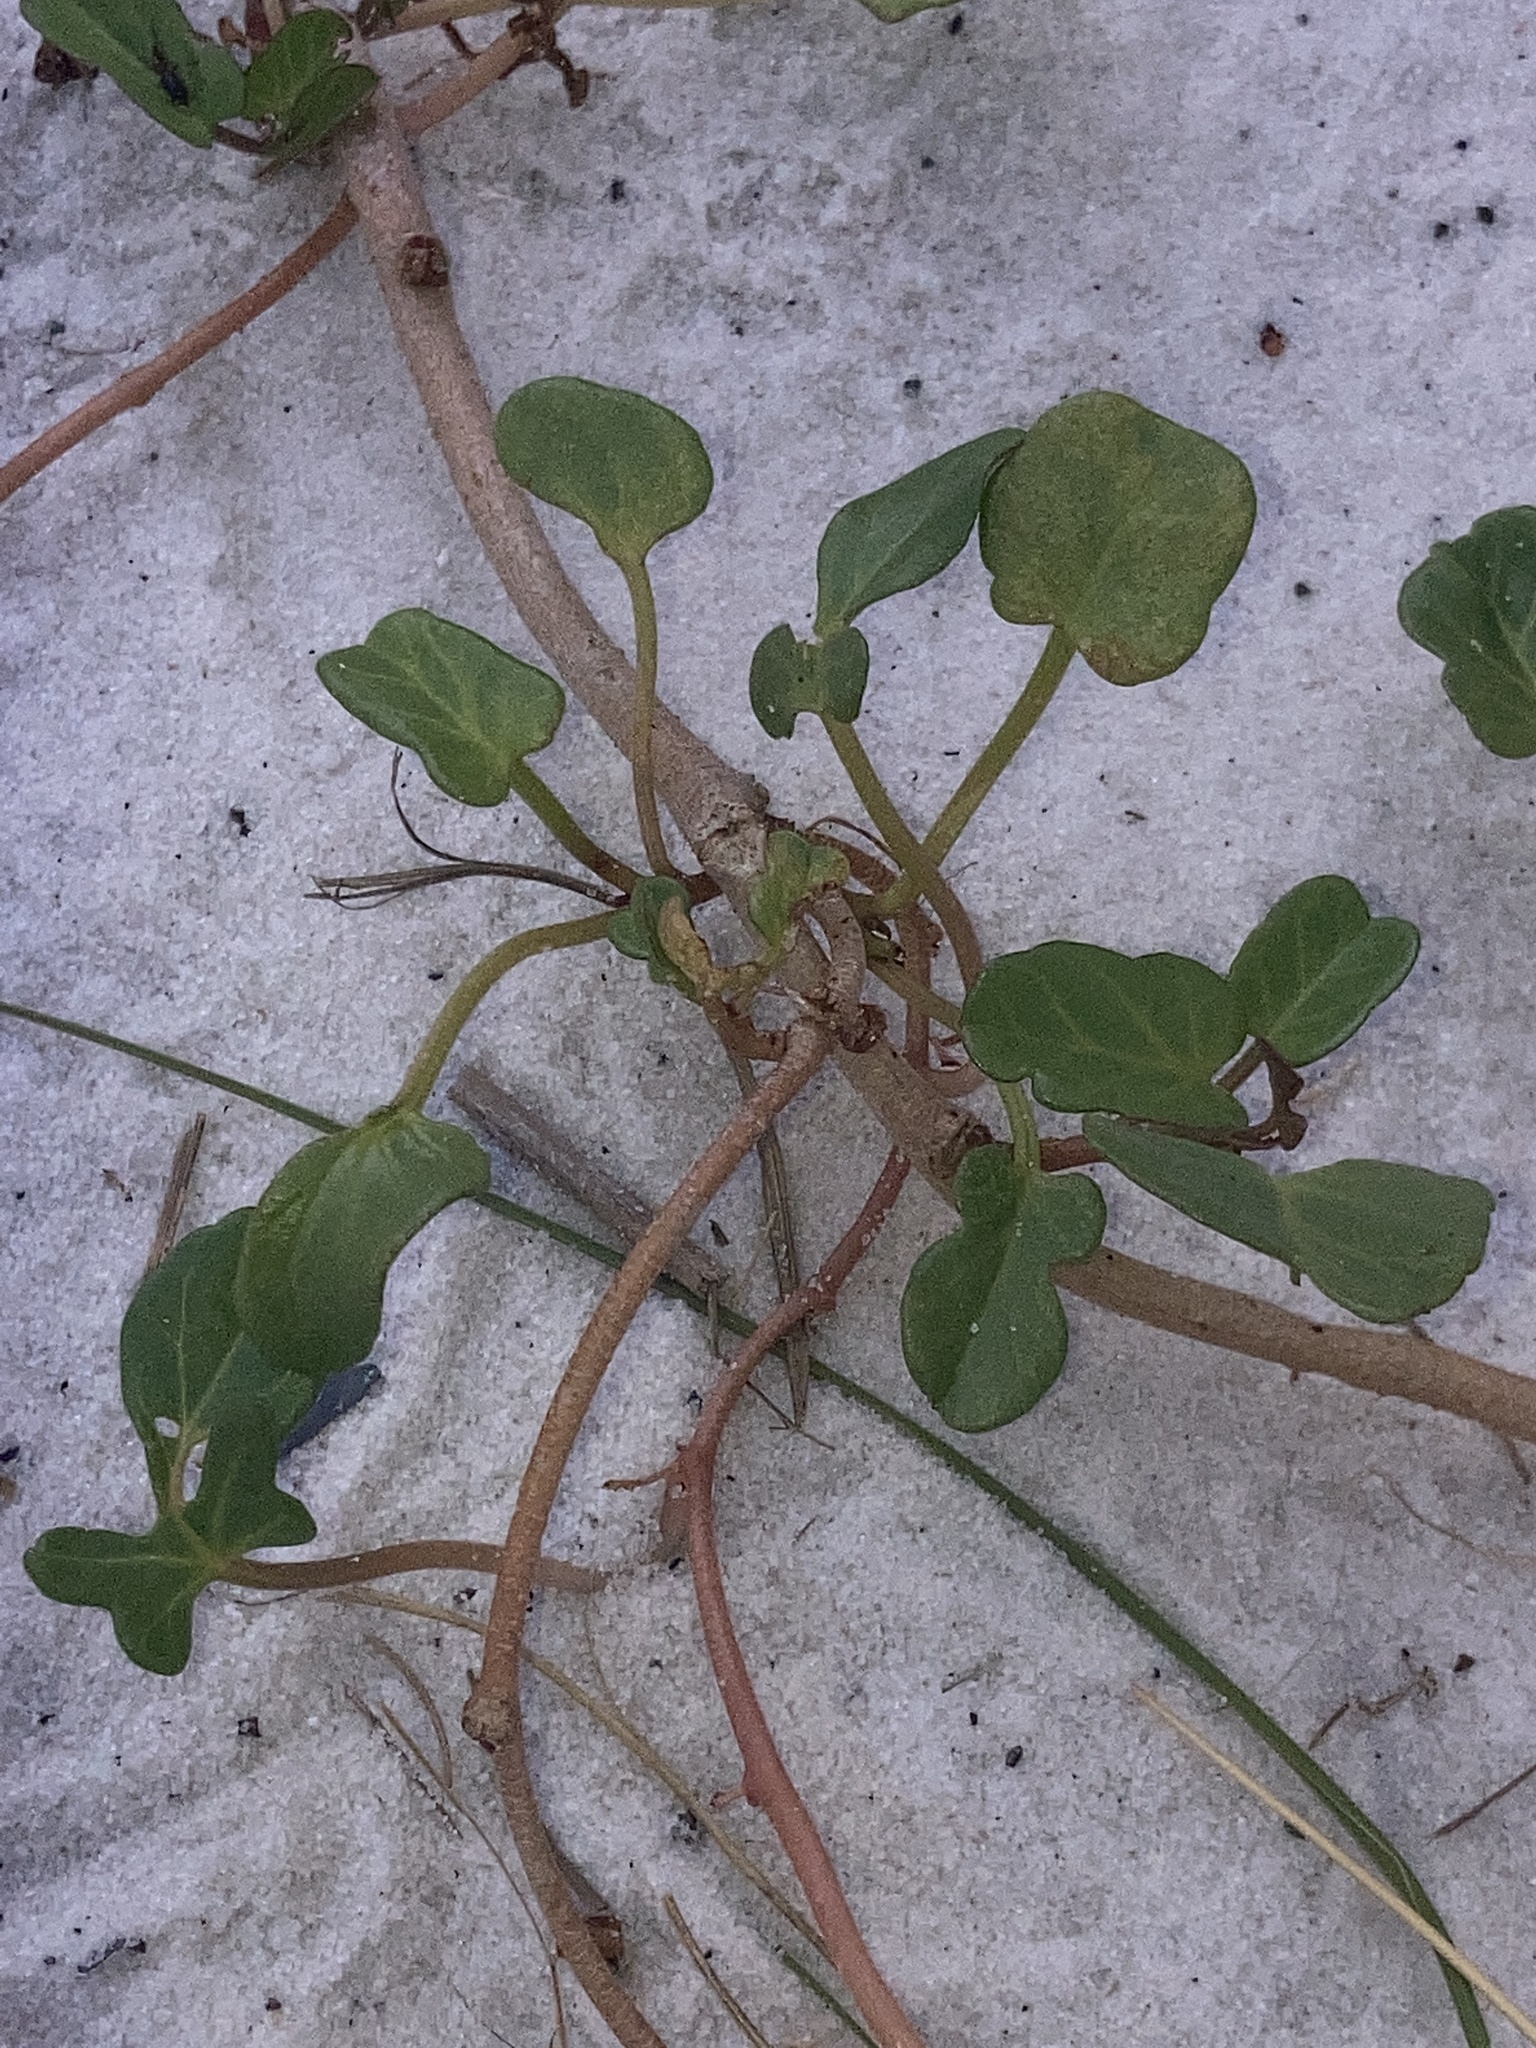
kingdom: Plantae
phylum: Tracheophyta
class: Magnoliopsida
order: Solanales
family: Convolvulaceae
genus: Ipomoea
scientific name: Ipomoea imperati
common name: Fiddle-leaf morning-glory
